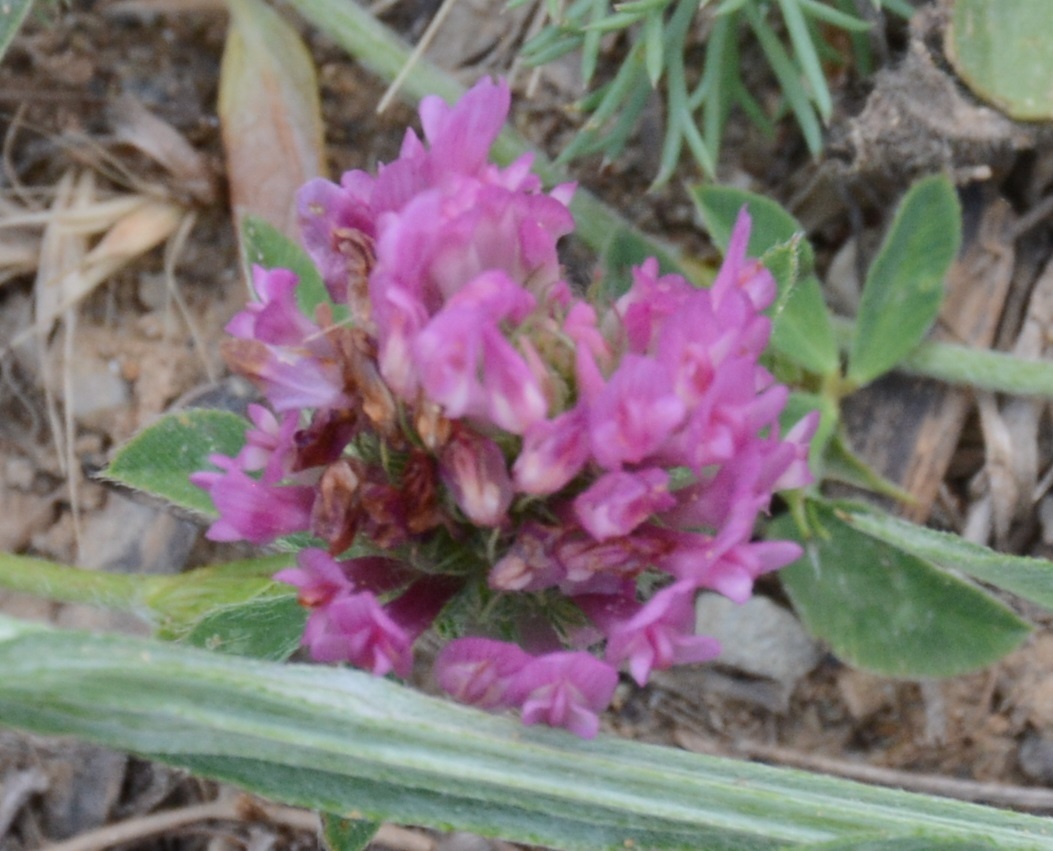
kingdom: Plantae
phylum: Tracheophyta
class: Magnoliopsida
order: Fabales
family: Fabaceae
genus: Trifolium
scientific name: Trifolium pratense
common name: Red clover
